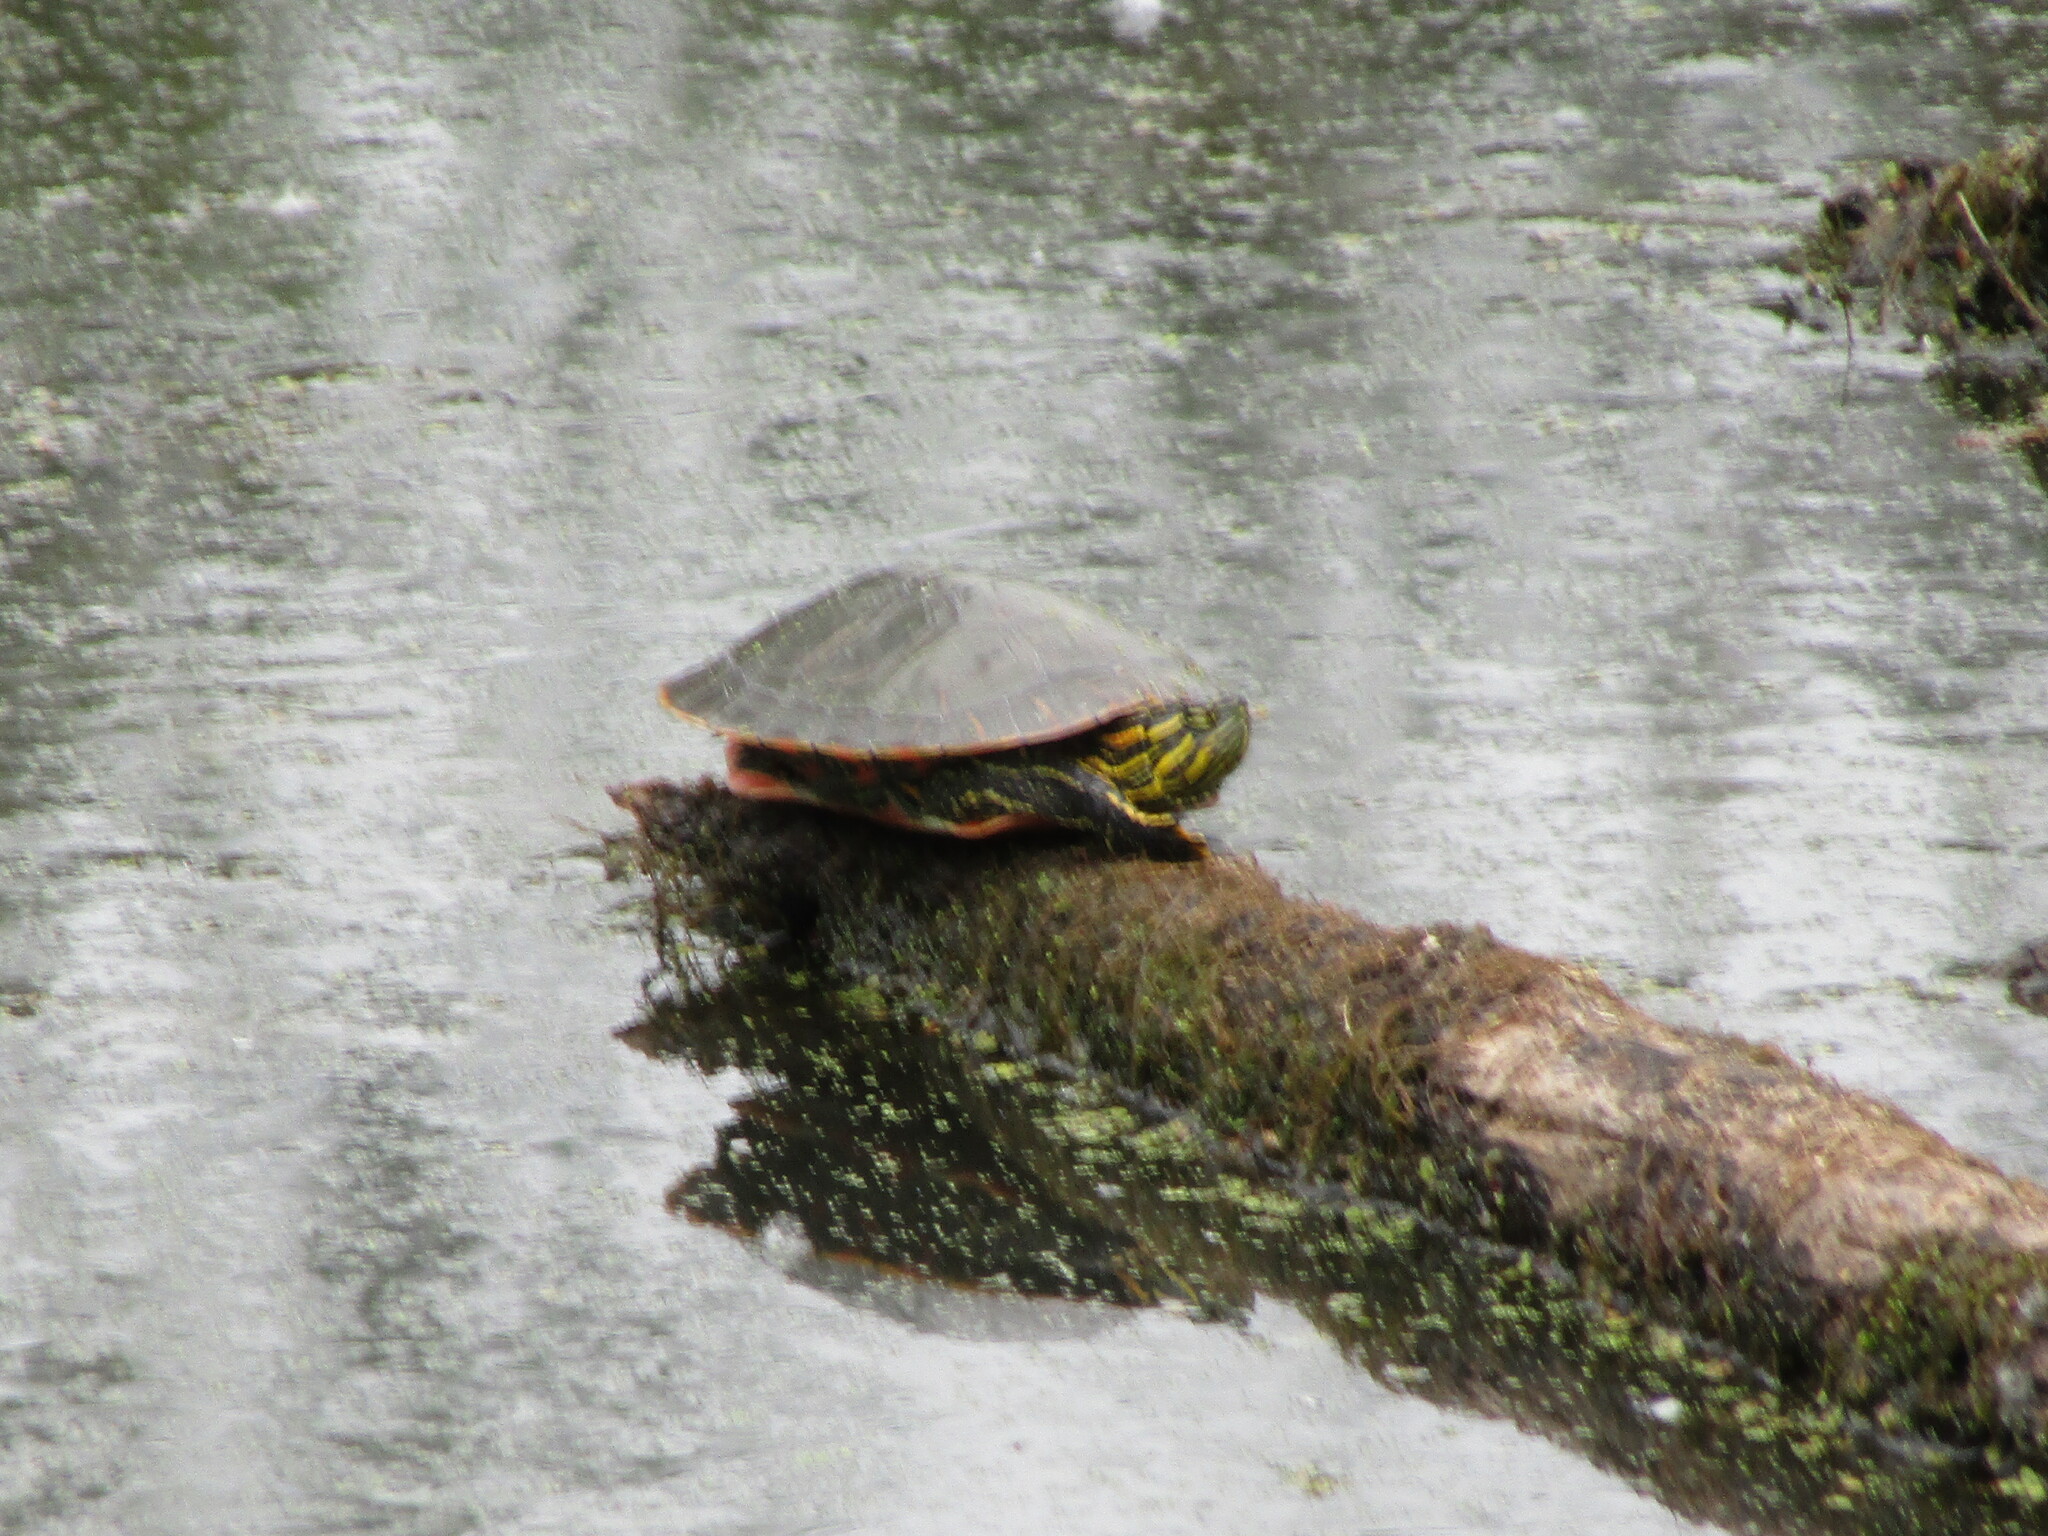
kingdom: Animalia
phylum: Chordata
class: Testudines
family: Emydidae
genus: Chrysemys
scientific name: Chrysemys picta
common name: Painted turtle
